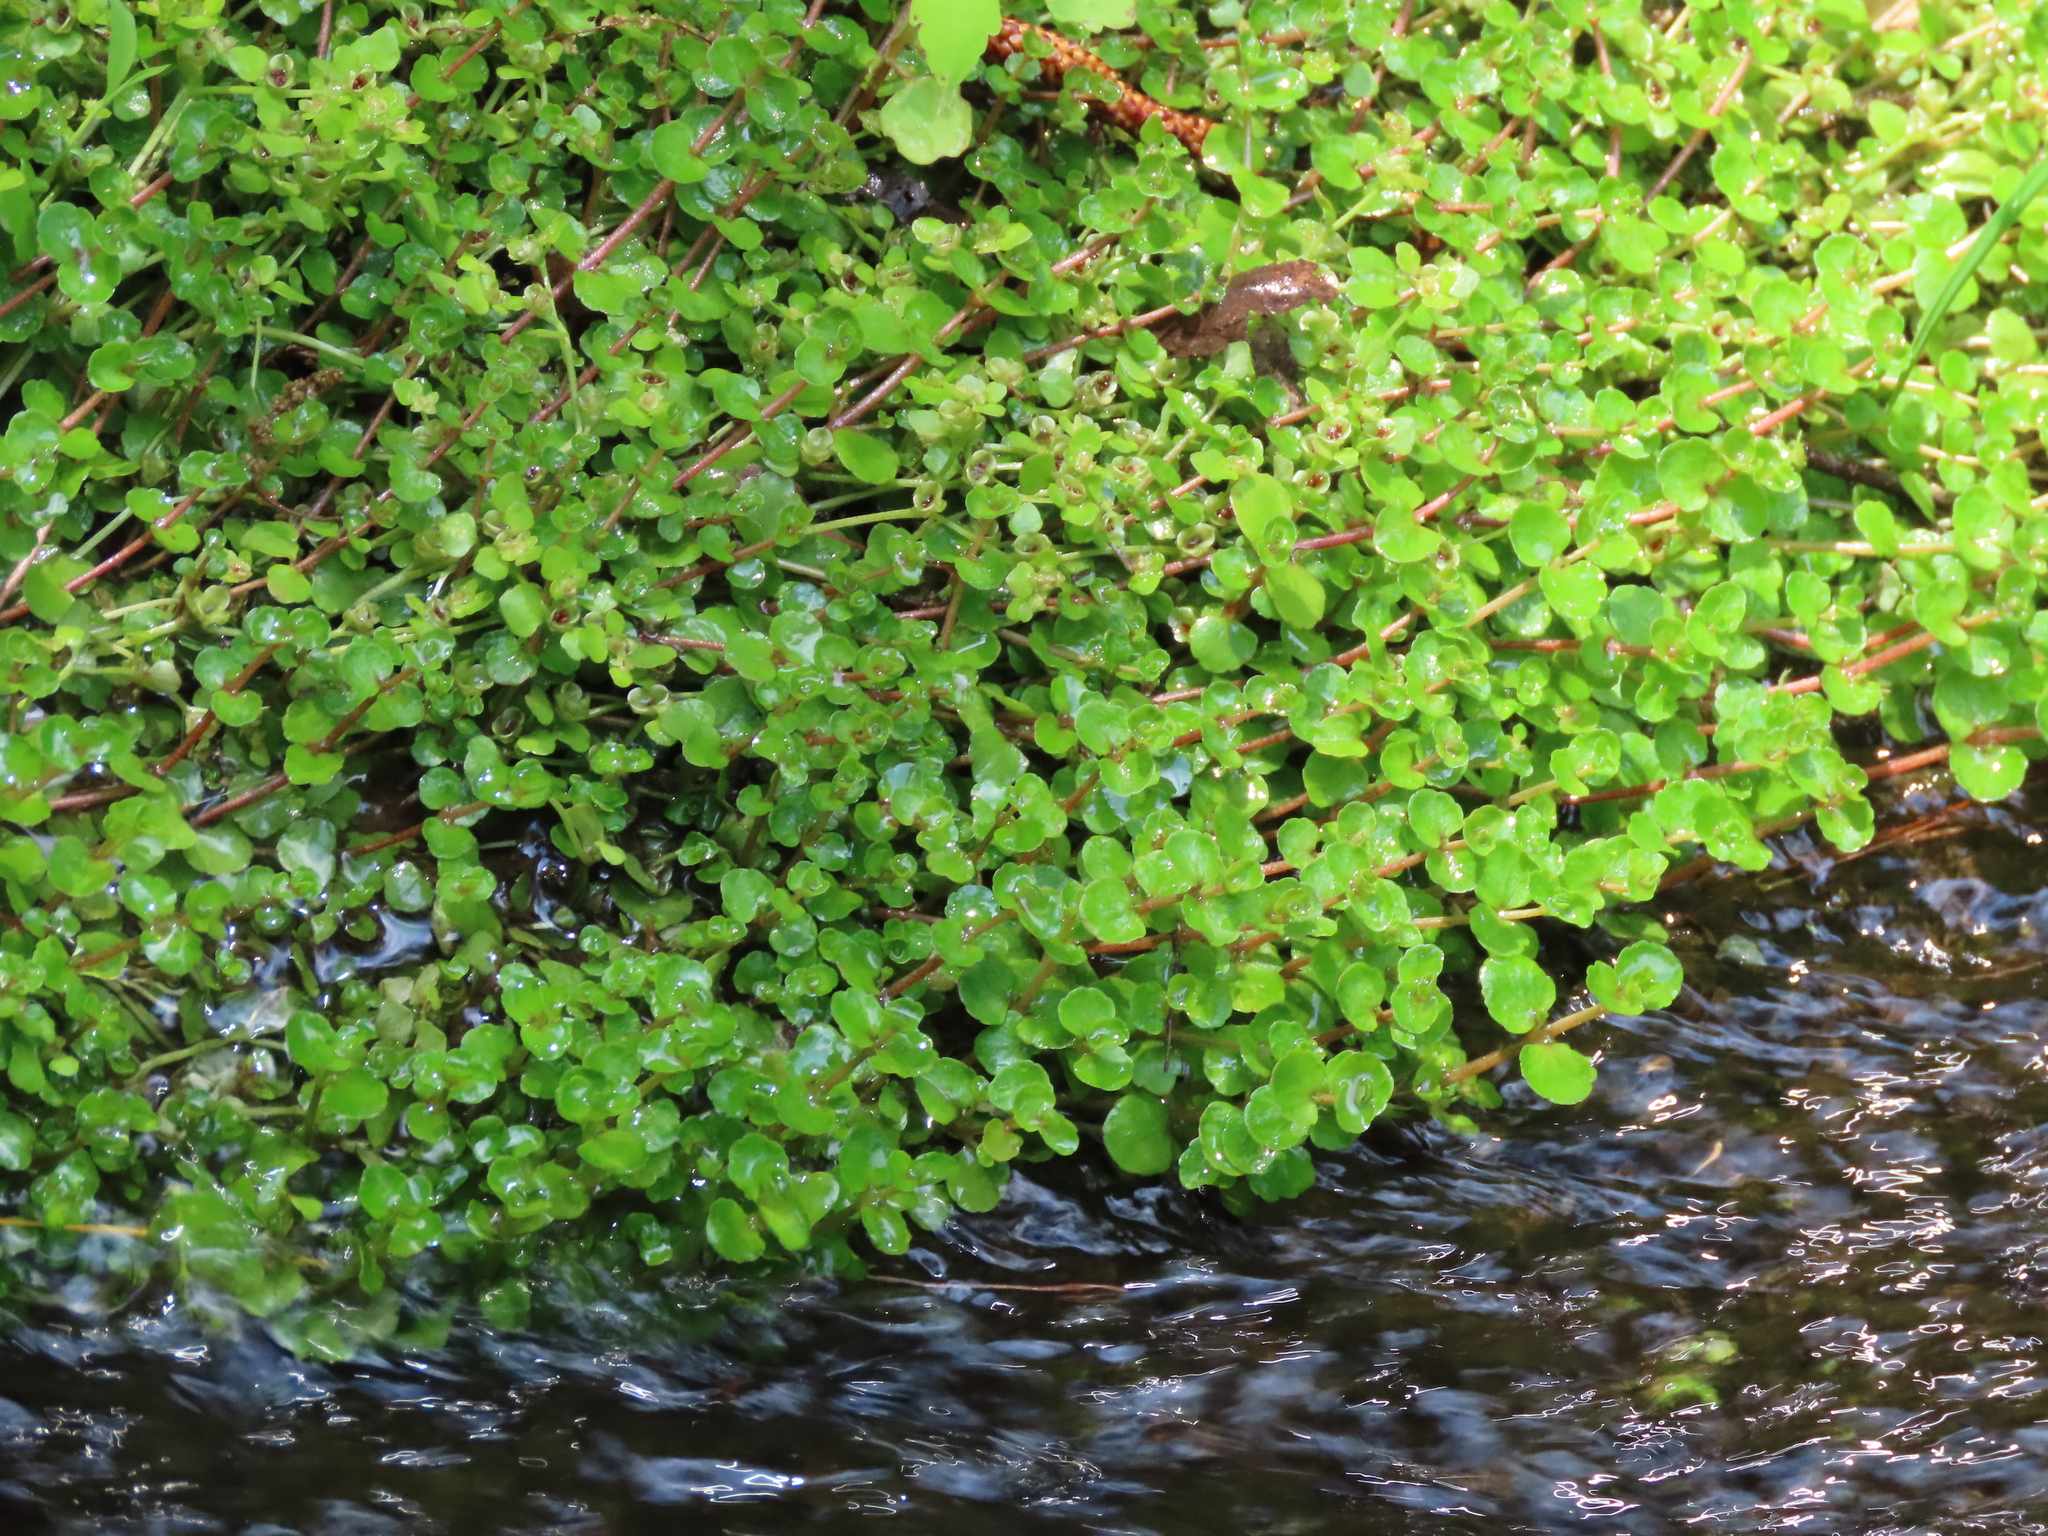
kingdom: Plantae
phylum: Tracheophyta
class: Magnoliopsida
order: Saxifragales
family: Saxifragaceae
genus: Chrysosplenium
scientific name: Chrysosplenium americanum
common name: American golden-saxifrage
